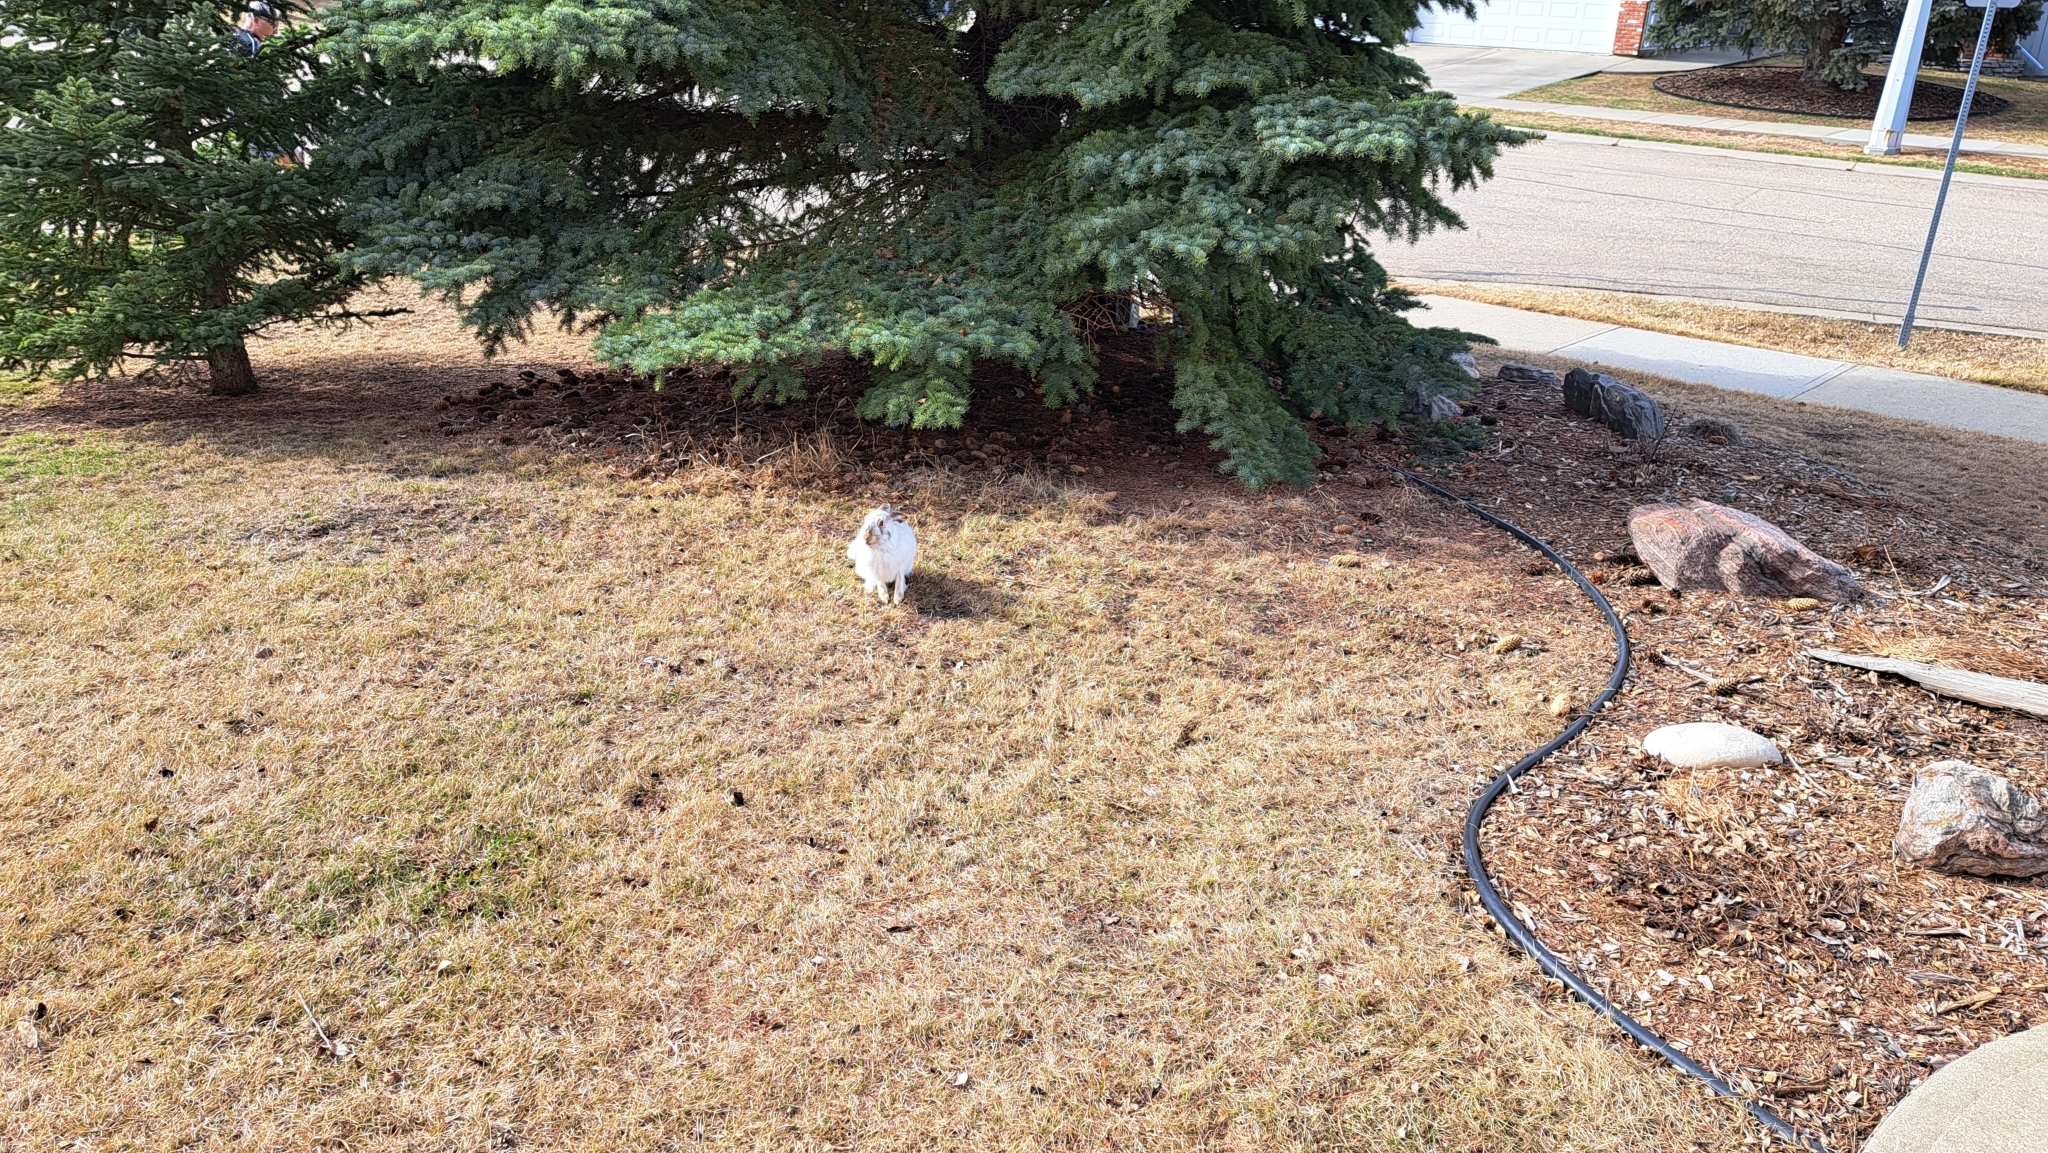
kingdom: Animalia
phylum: Chordata
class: Mammalia
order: Lagomorpha
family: Leporidae
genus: Lepus
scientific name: Lepus townsendii
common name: White-tailed jackrabbit
